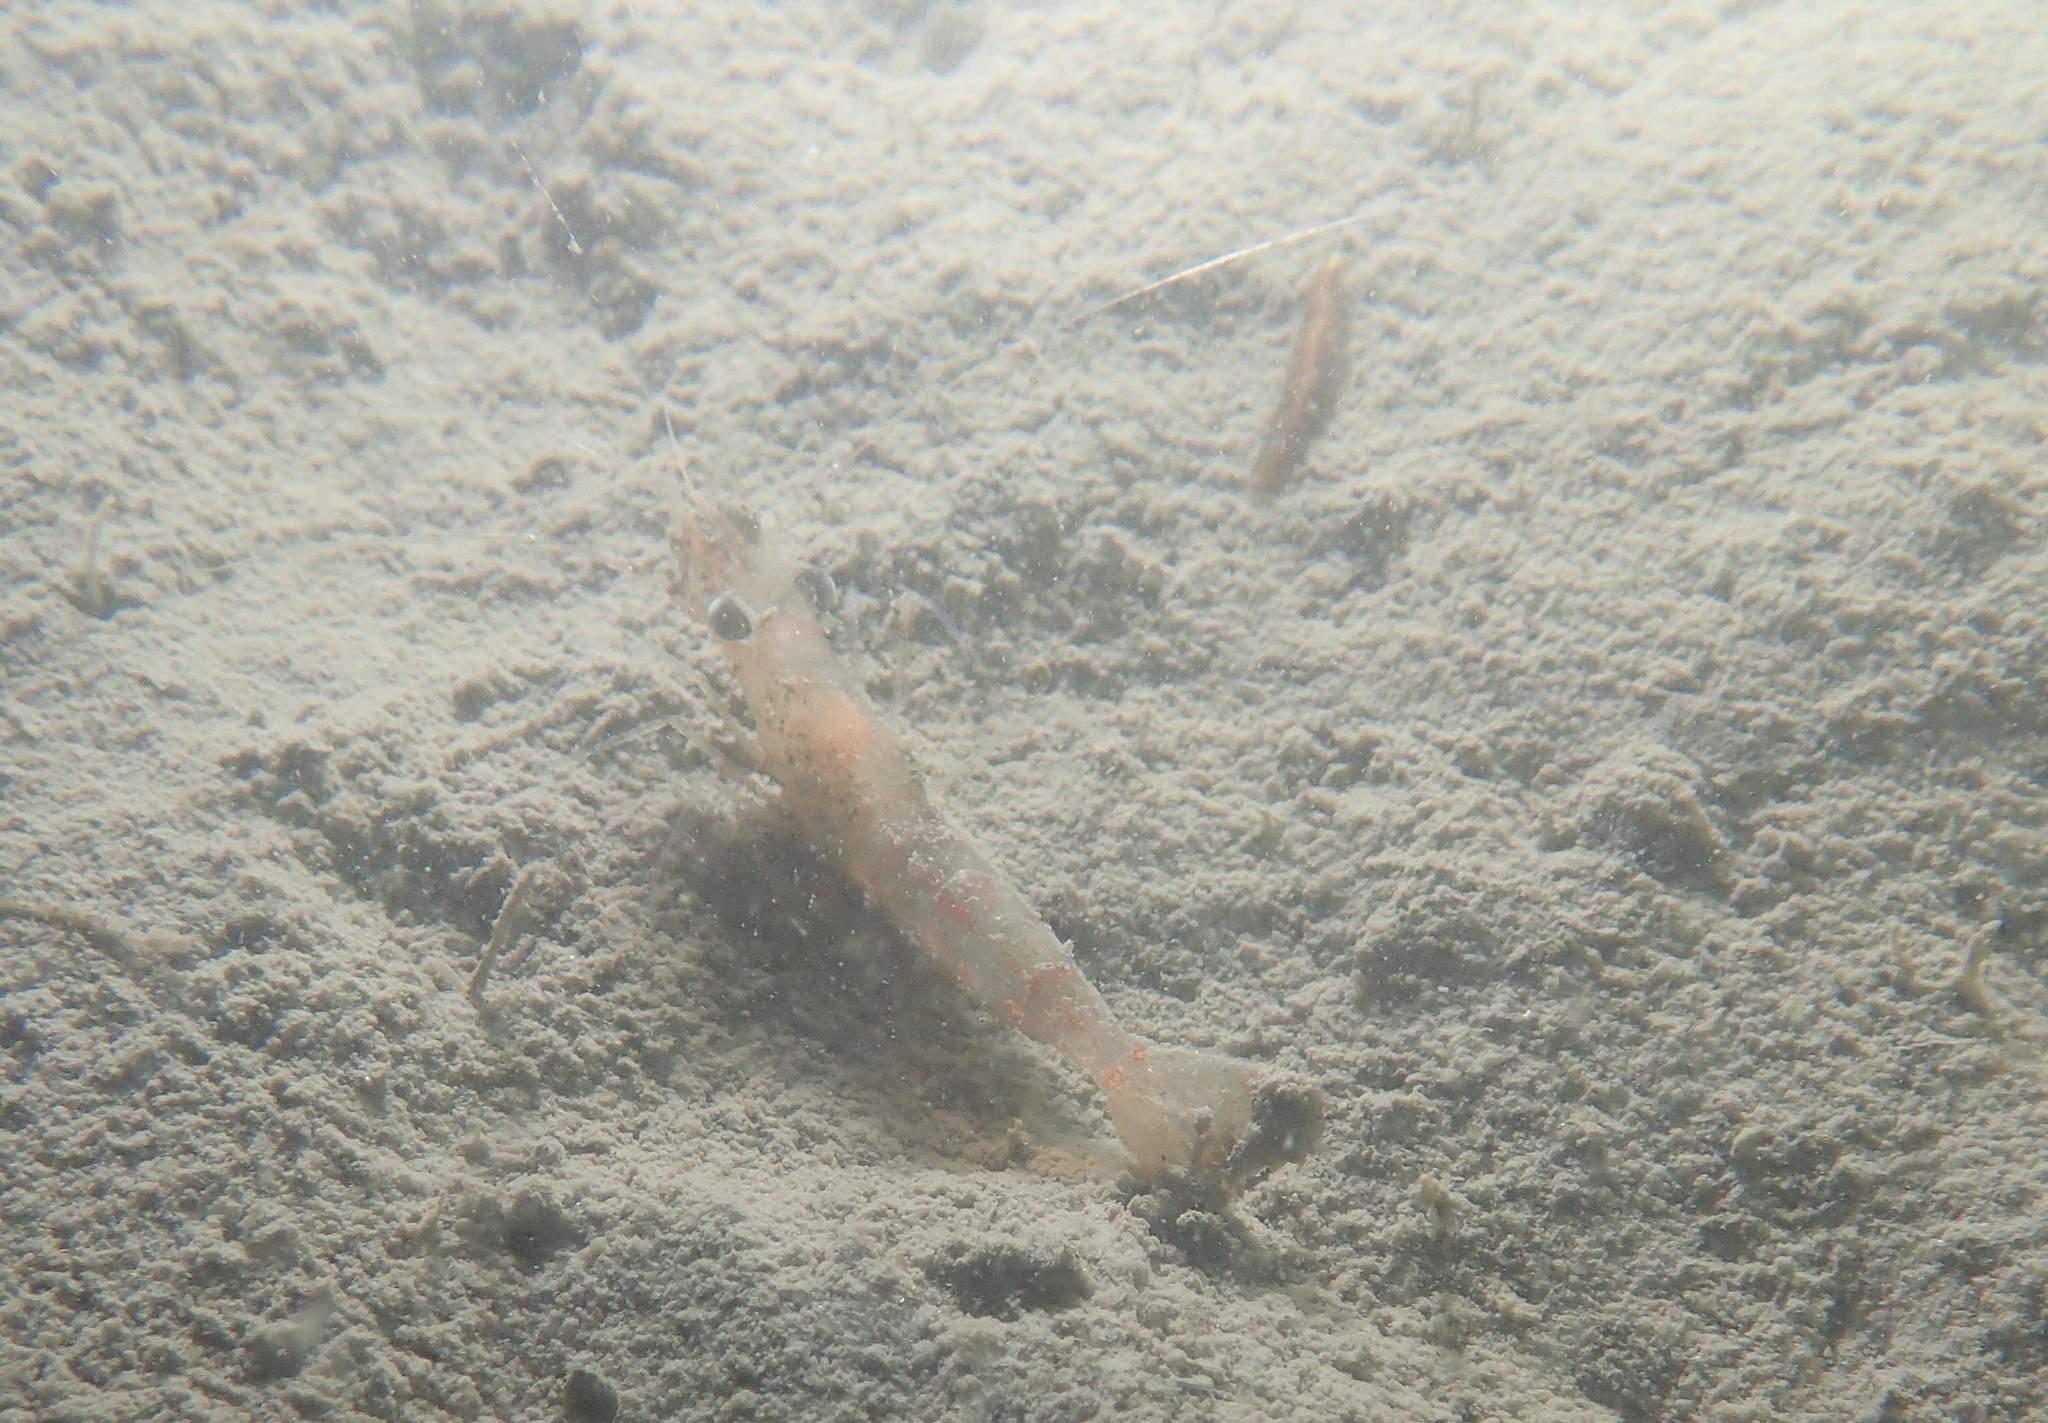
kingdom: Animalia
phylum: Arthropoda
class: Malacostraca
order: Decapoda
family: Processidae
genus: Processa
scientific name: Processa macrophthalma
